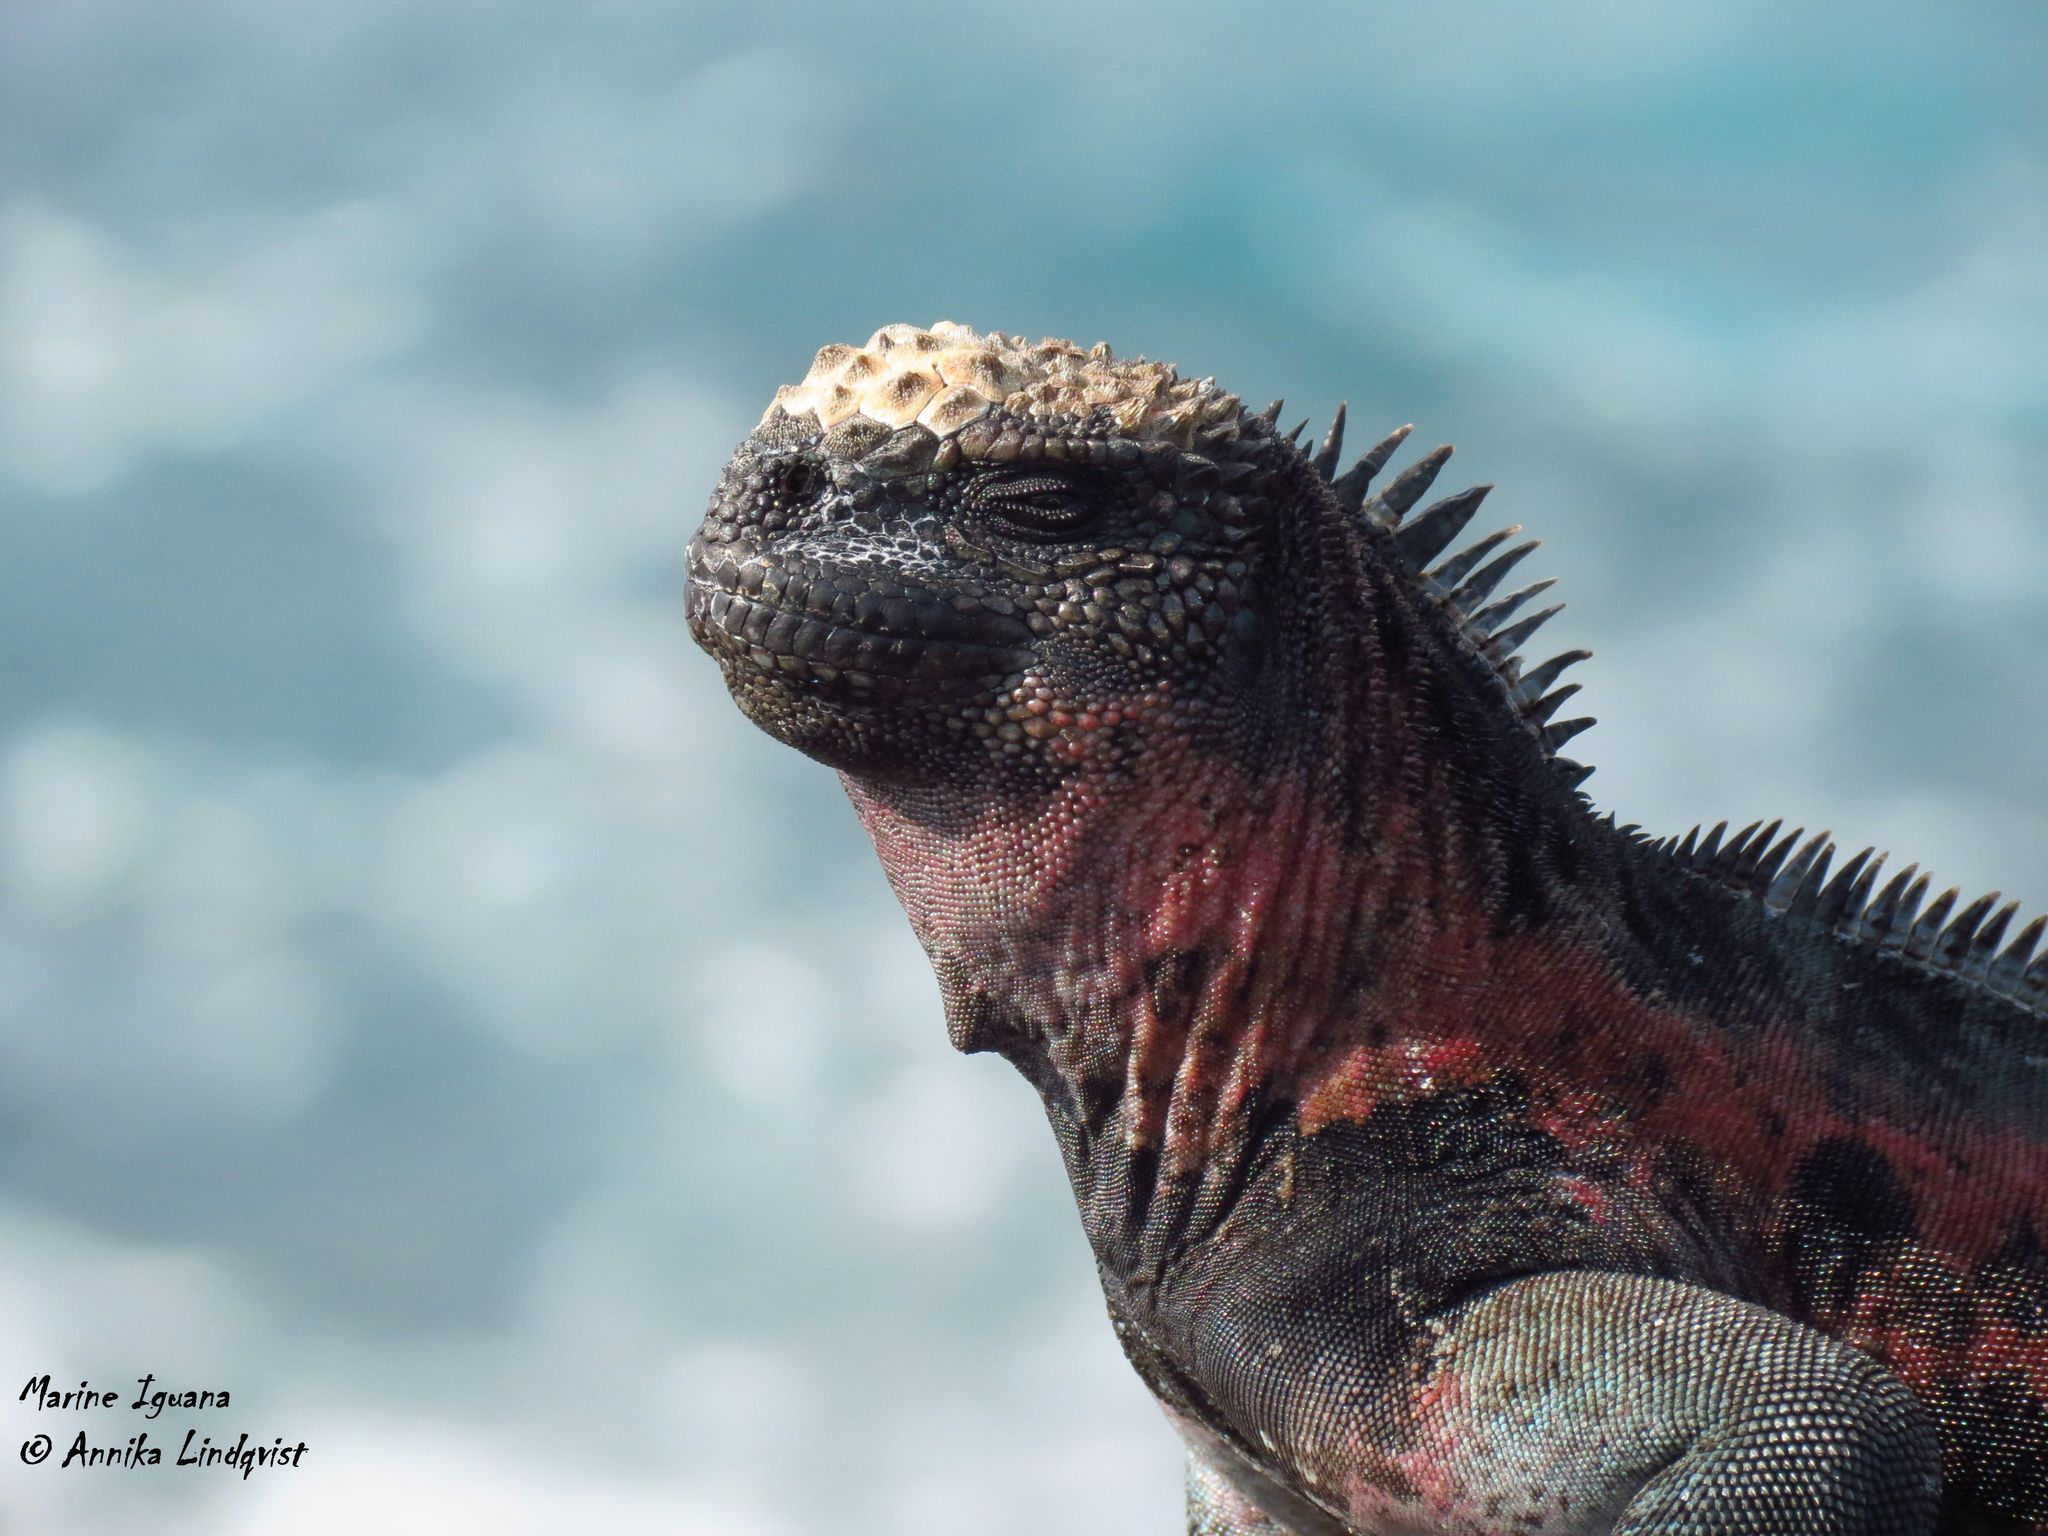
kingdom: Animalia
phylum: Chordata
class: Squamata
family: Iguanidae
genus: Amblyrhynchus
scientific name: Amblyrhynchus cristatus
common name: Marine iguana
